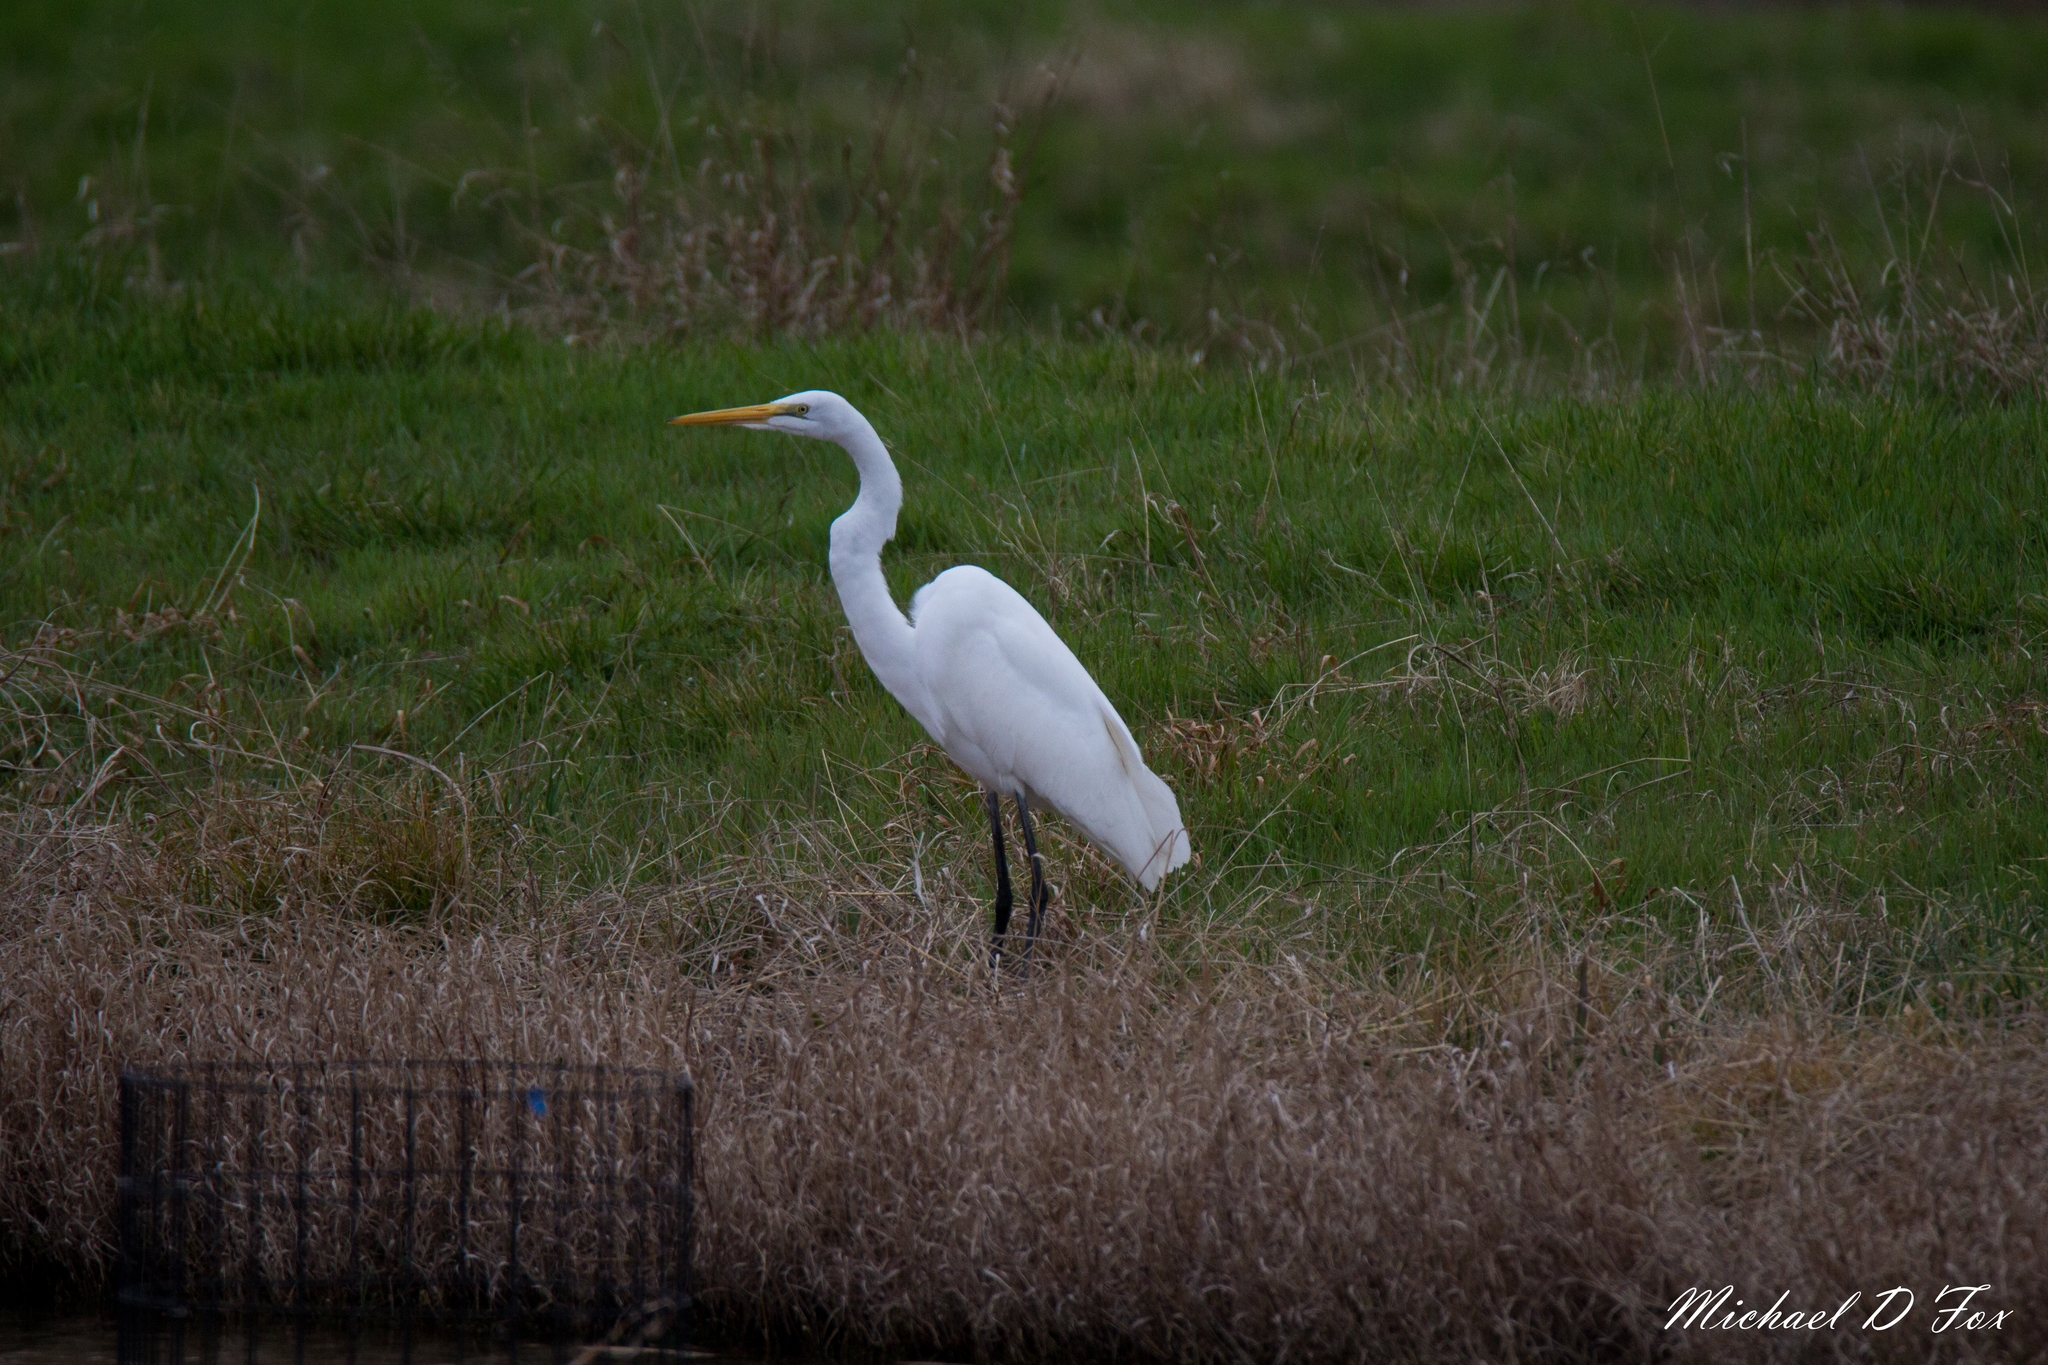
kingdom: Animalia
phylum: Chordata
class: Aves
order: Pelecaniformes
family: Ardeidae
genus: Ardea
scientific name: Ardea alba
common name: Great egret
